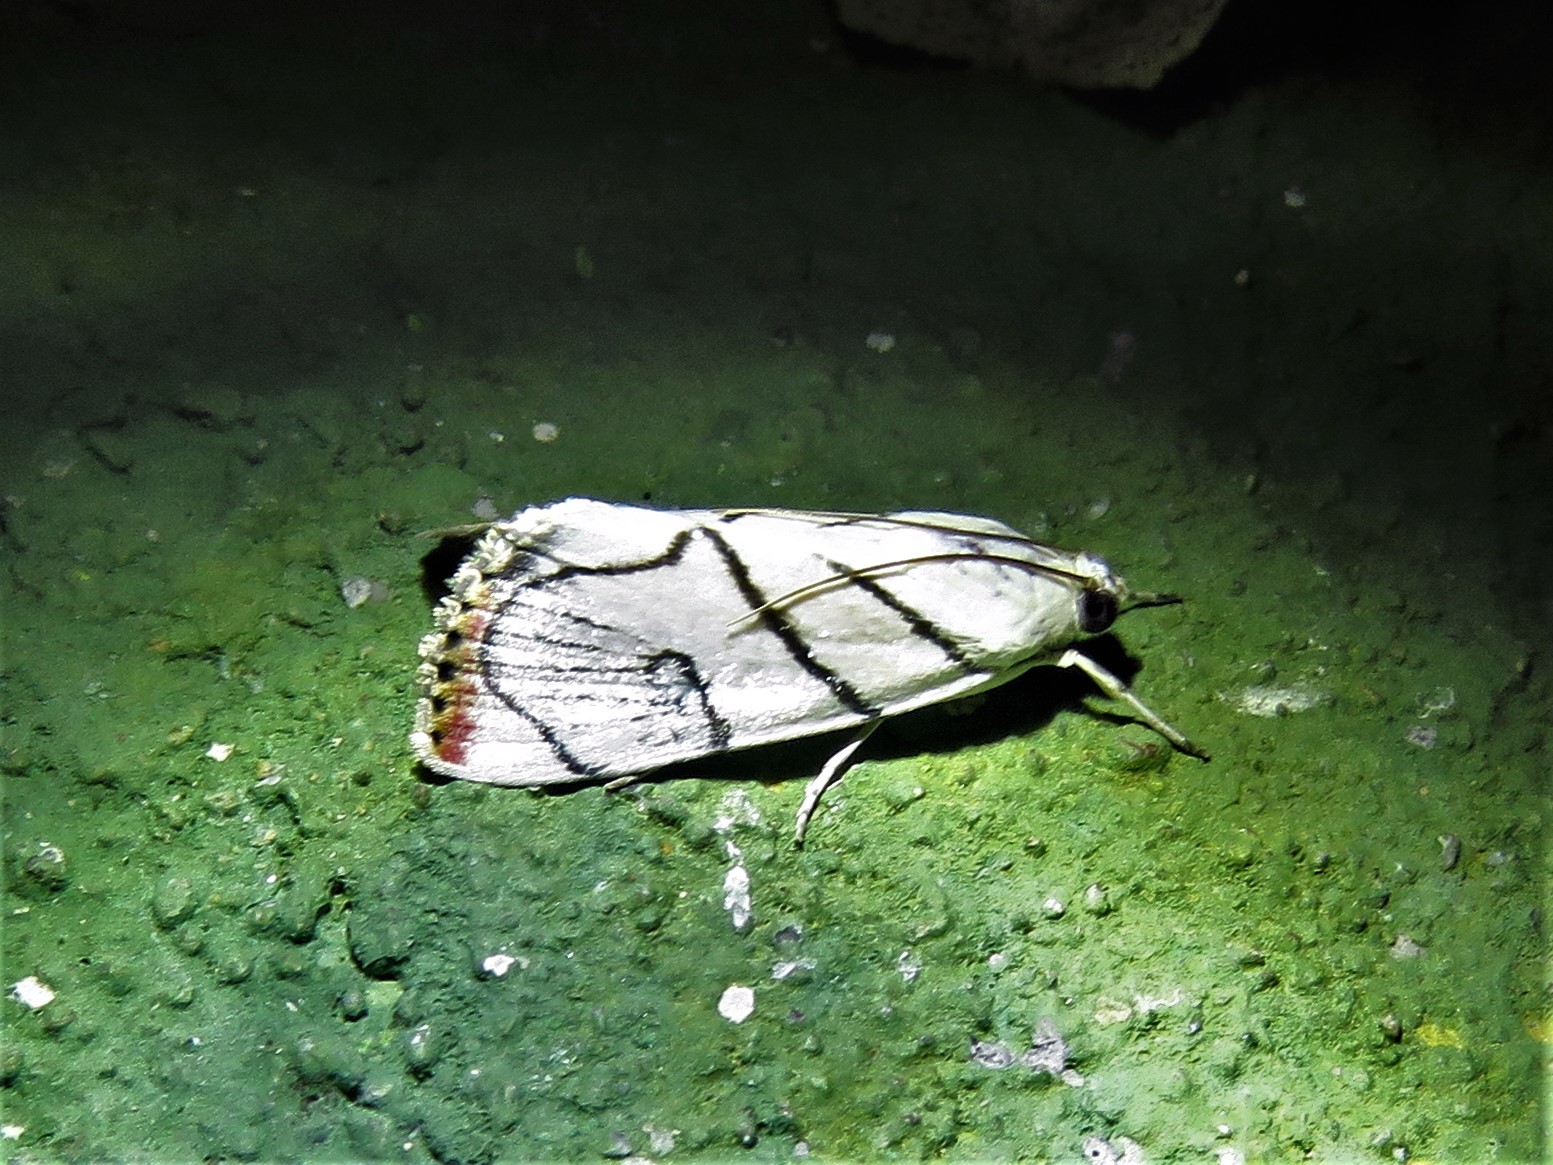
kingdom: Animalia
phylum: Arthropoda
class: Insecta
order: Lepidoptera
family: Crambidae
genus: Dichogama
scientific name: Dichogama gudmanni
